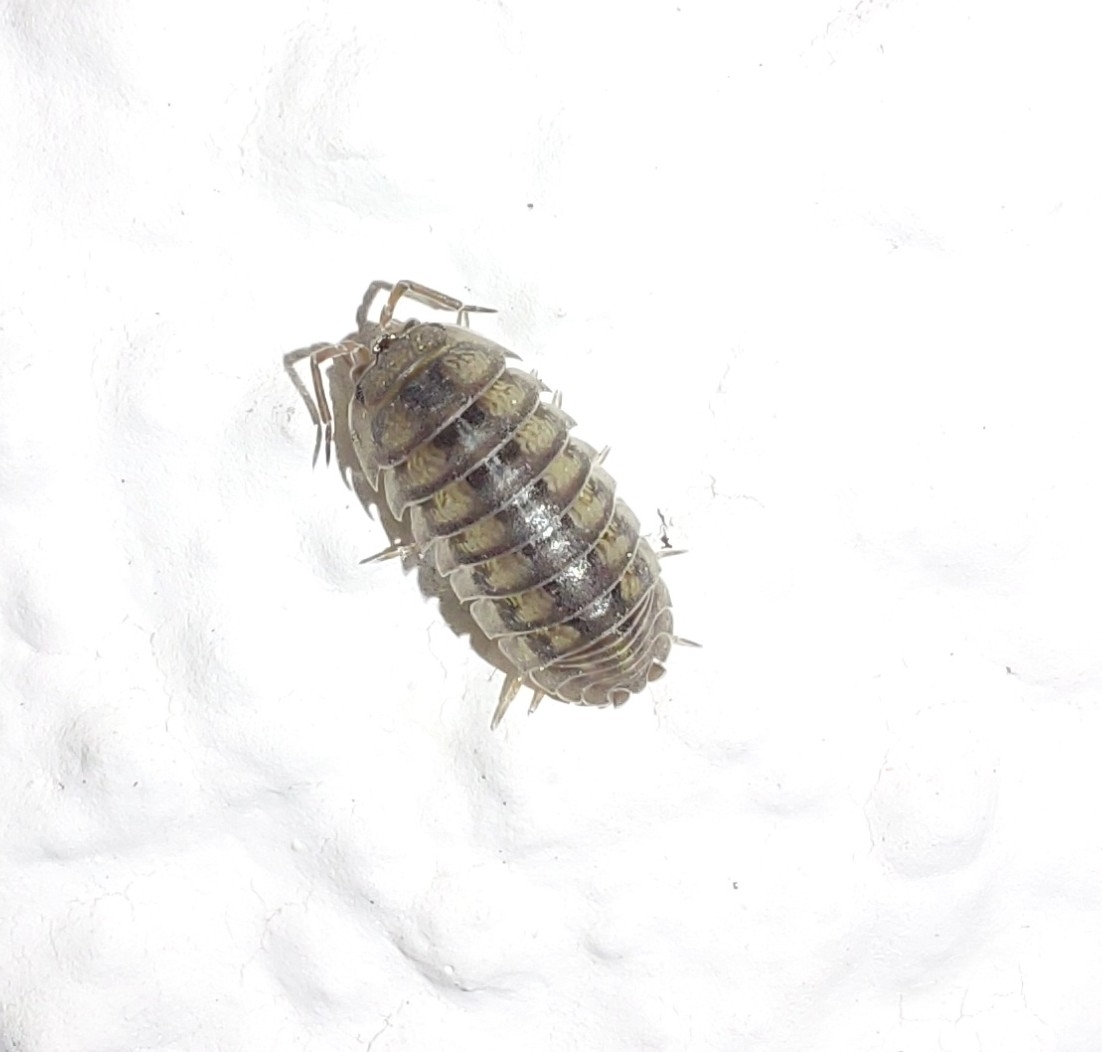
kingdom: Animalia
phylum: Arthropoda
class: Malacostraca
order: Isopoda
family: Armadillidiidae
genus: Armadillidium
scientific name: Armadillidium nasatum
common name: Isopod
